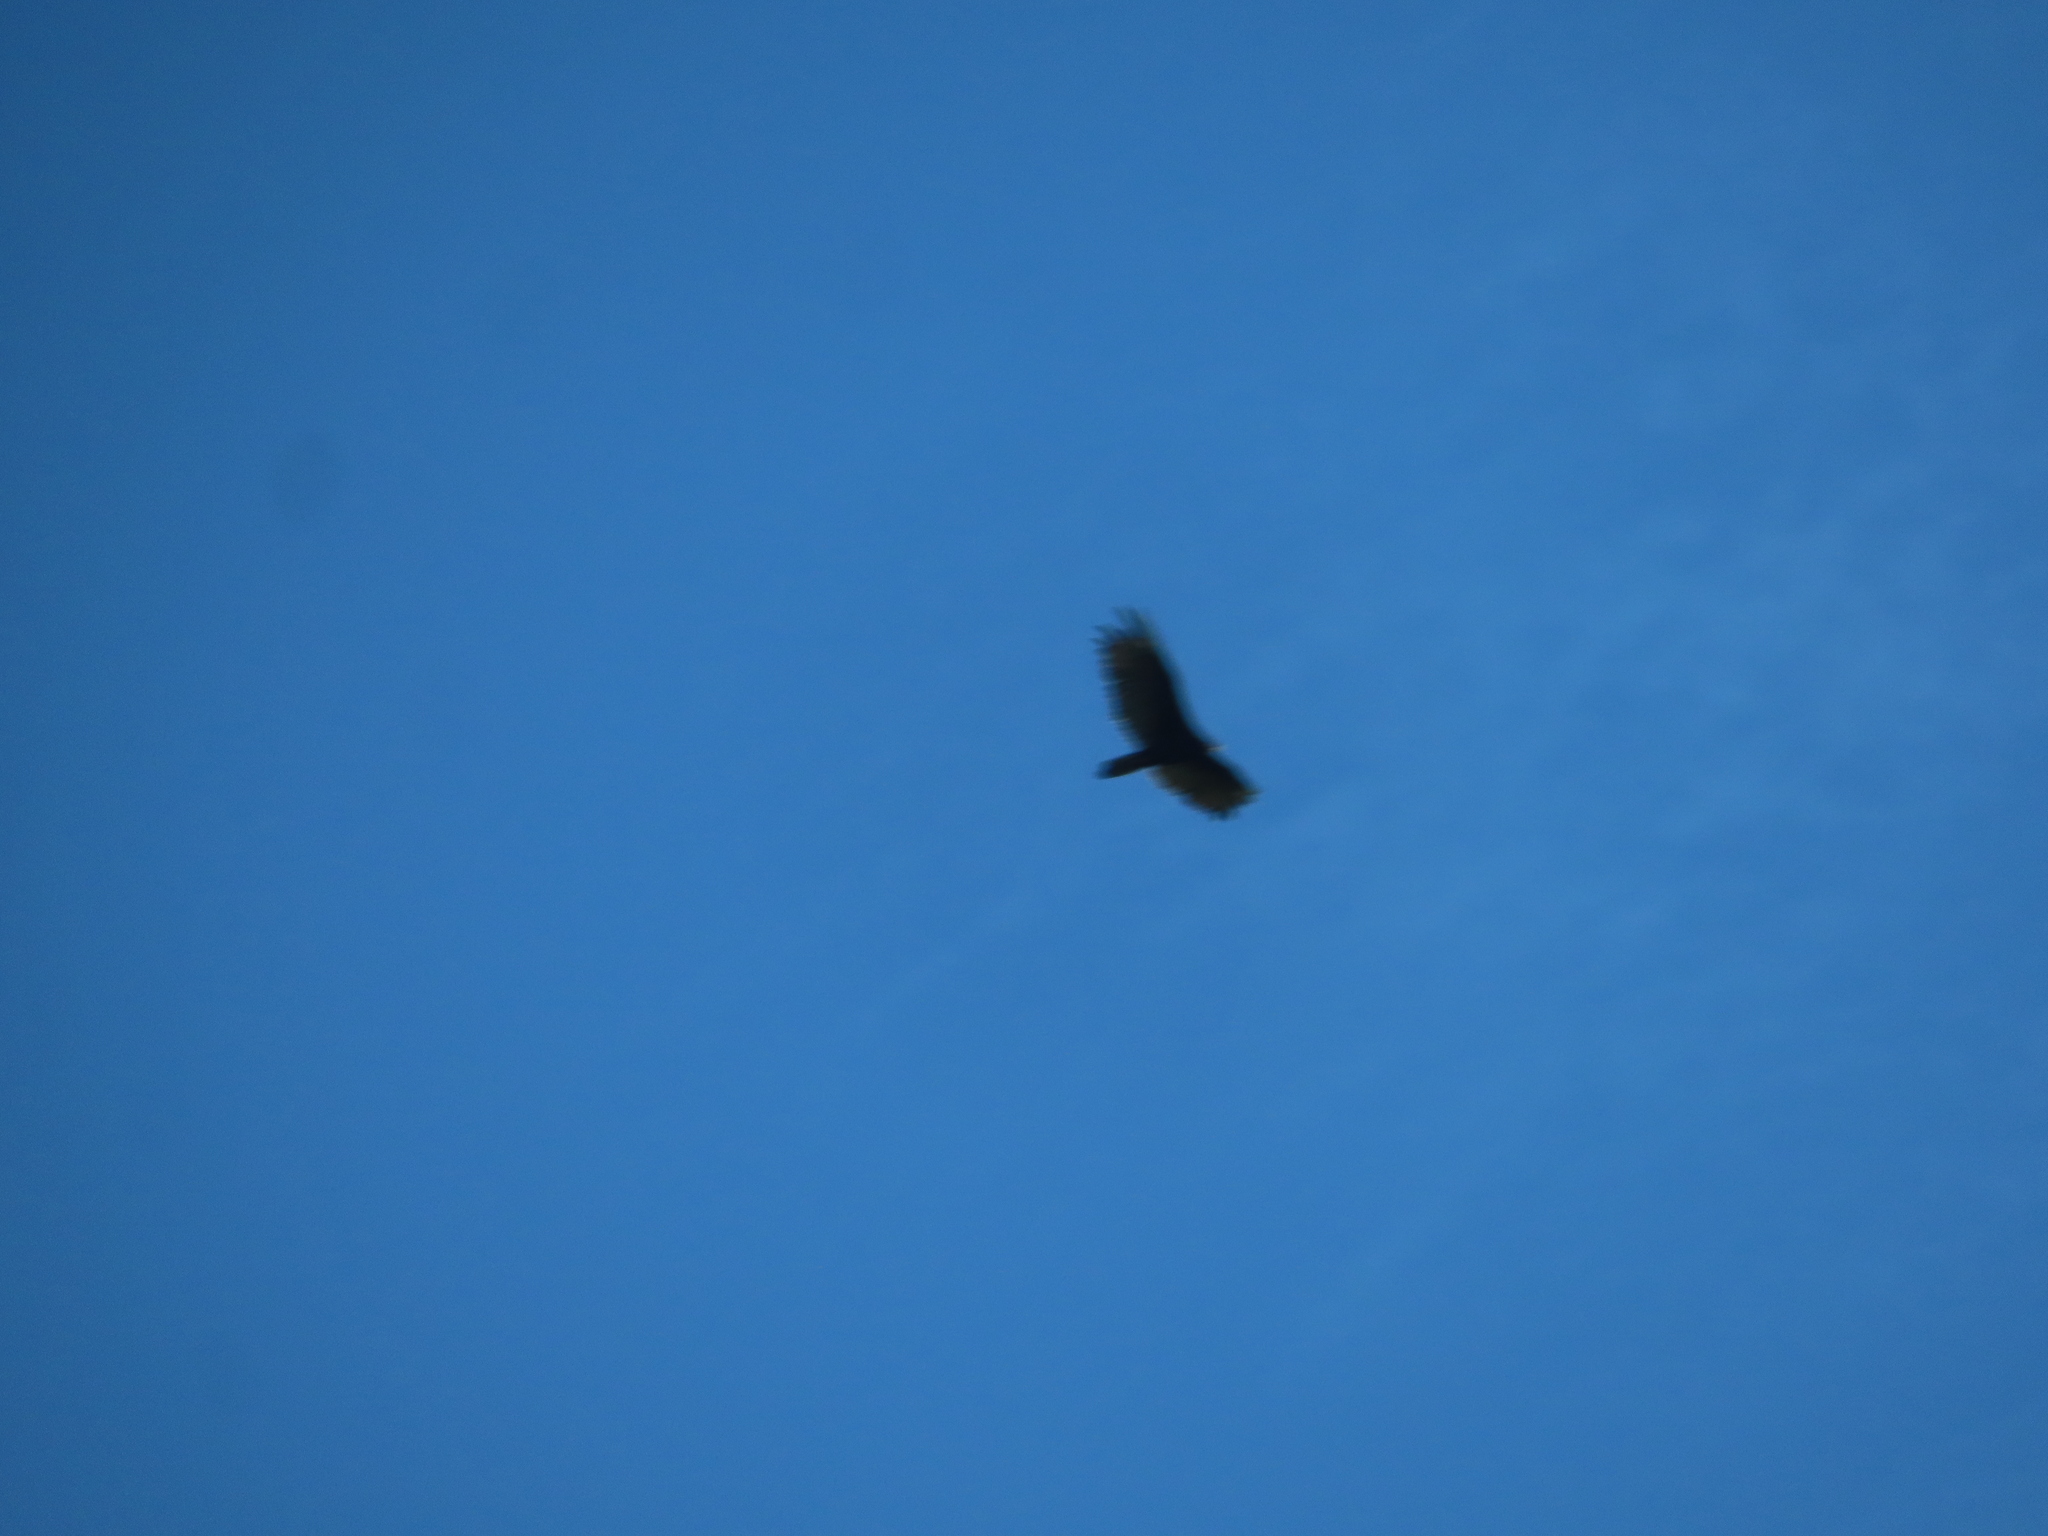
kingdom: Animalia
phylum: Chordata
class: Aves
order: Accipitriformes
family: Cathartidae
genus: Cathartes
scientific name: Cathartes aura
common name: Turkey vulture
